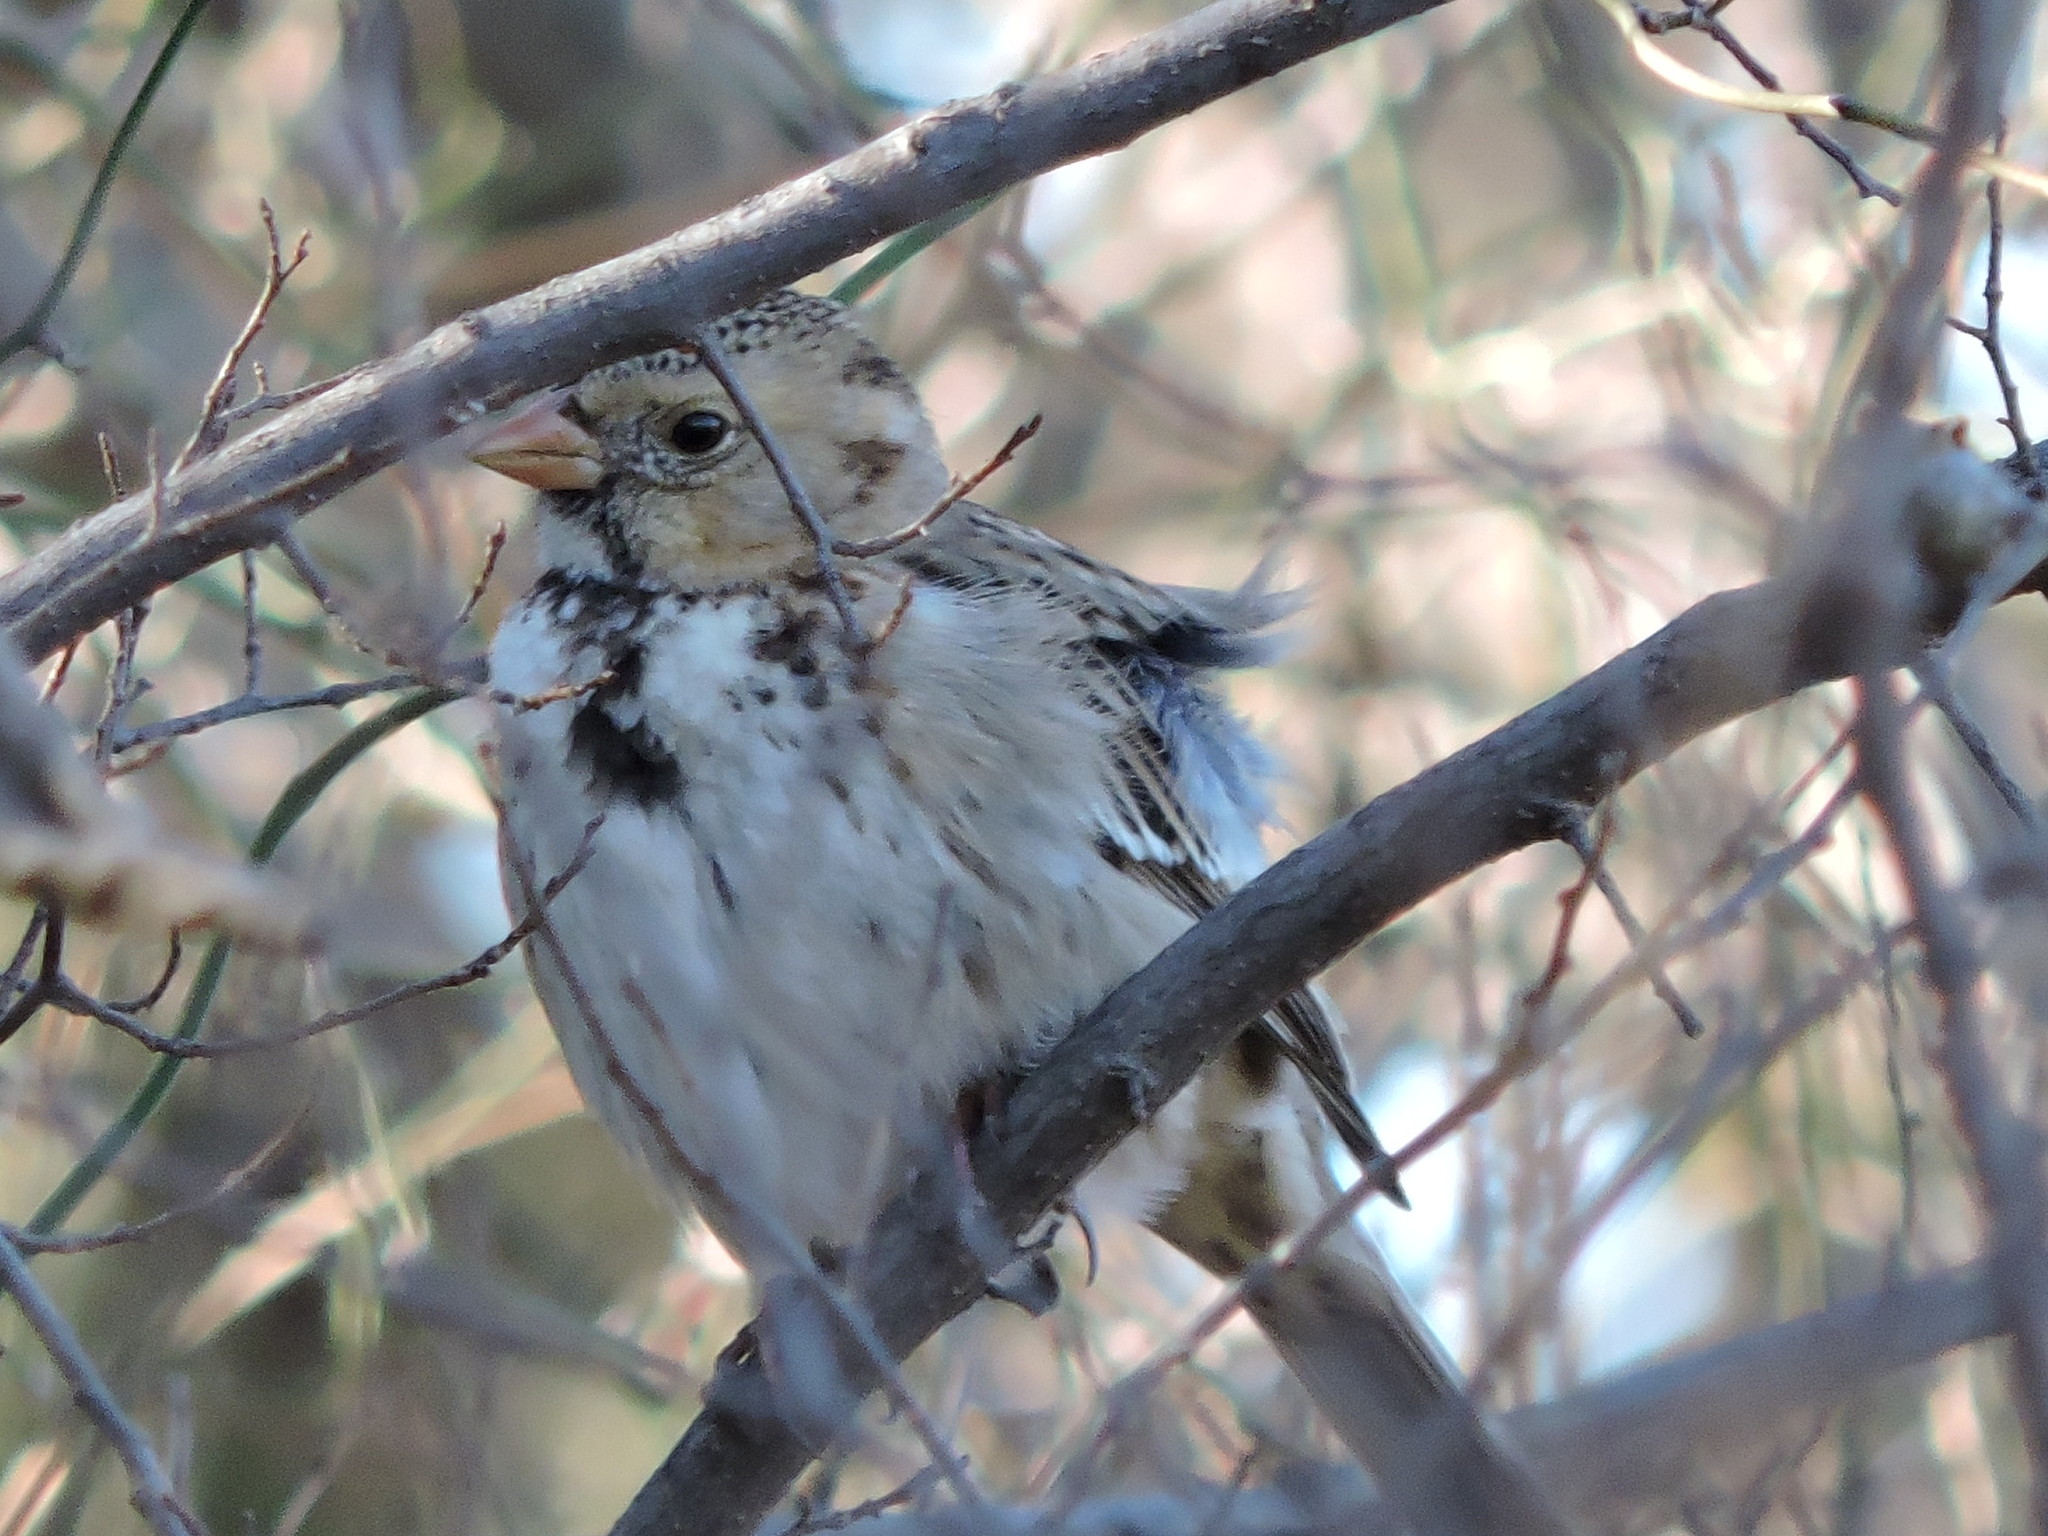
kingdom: Animalia
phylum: Chordata
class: Aves
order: Passeriformes
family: Passerellidae
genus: Zonotrichia
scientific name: Zonotrichia querula
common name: Harris's sparrow
